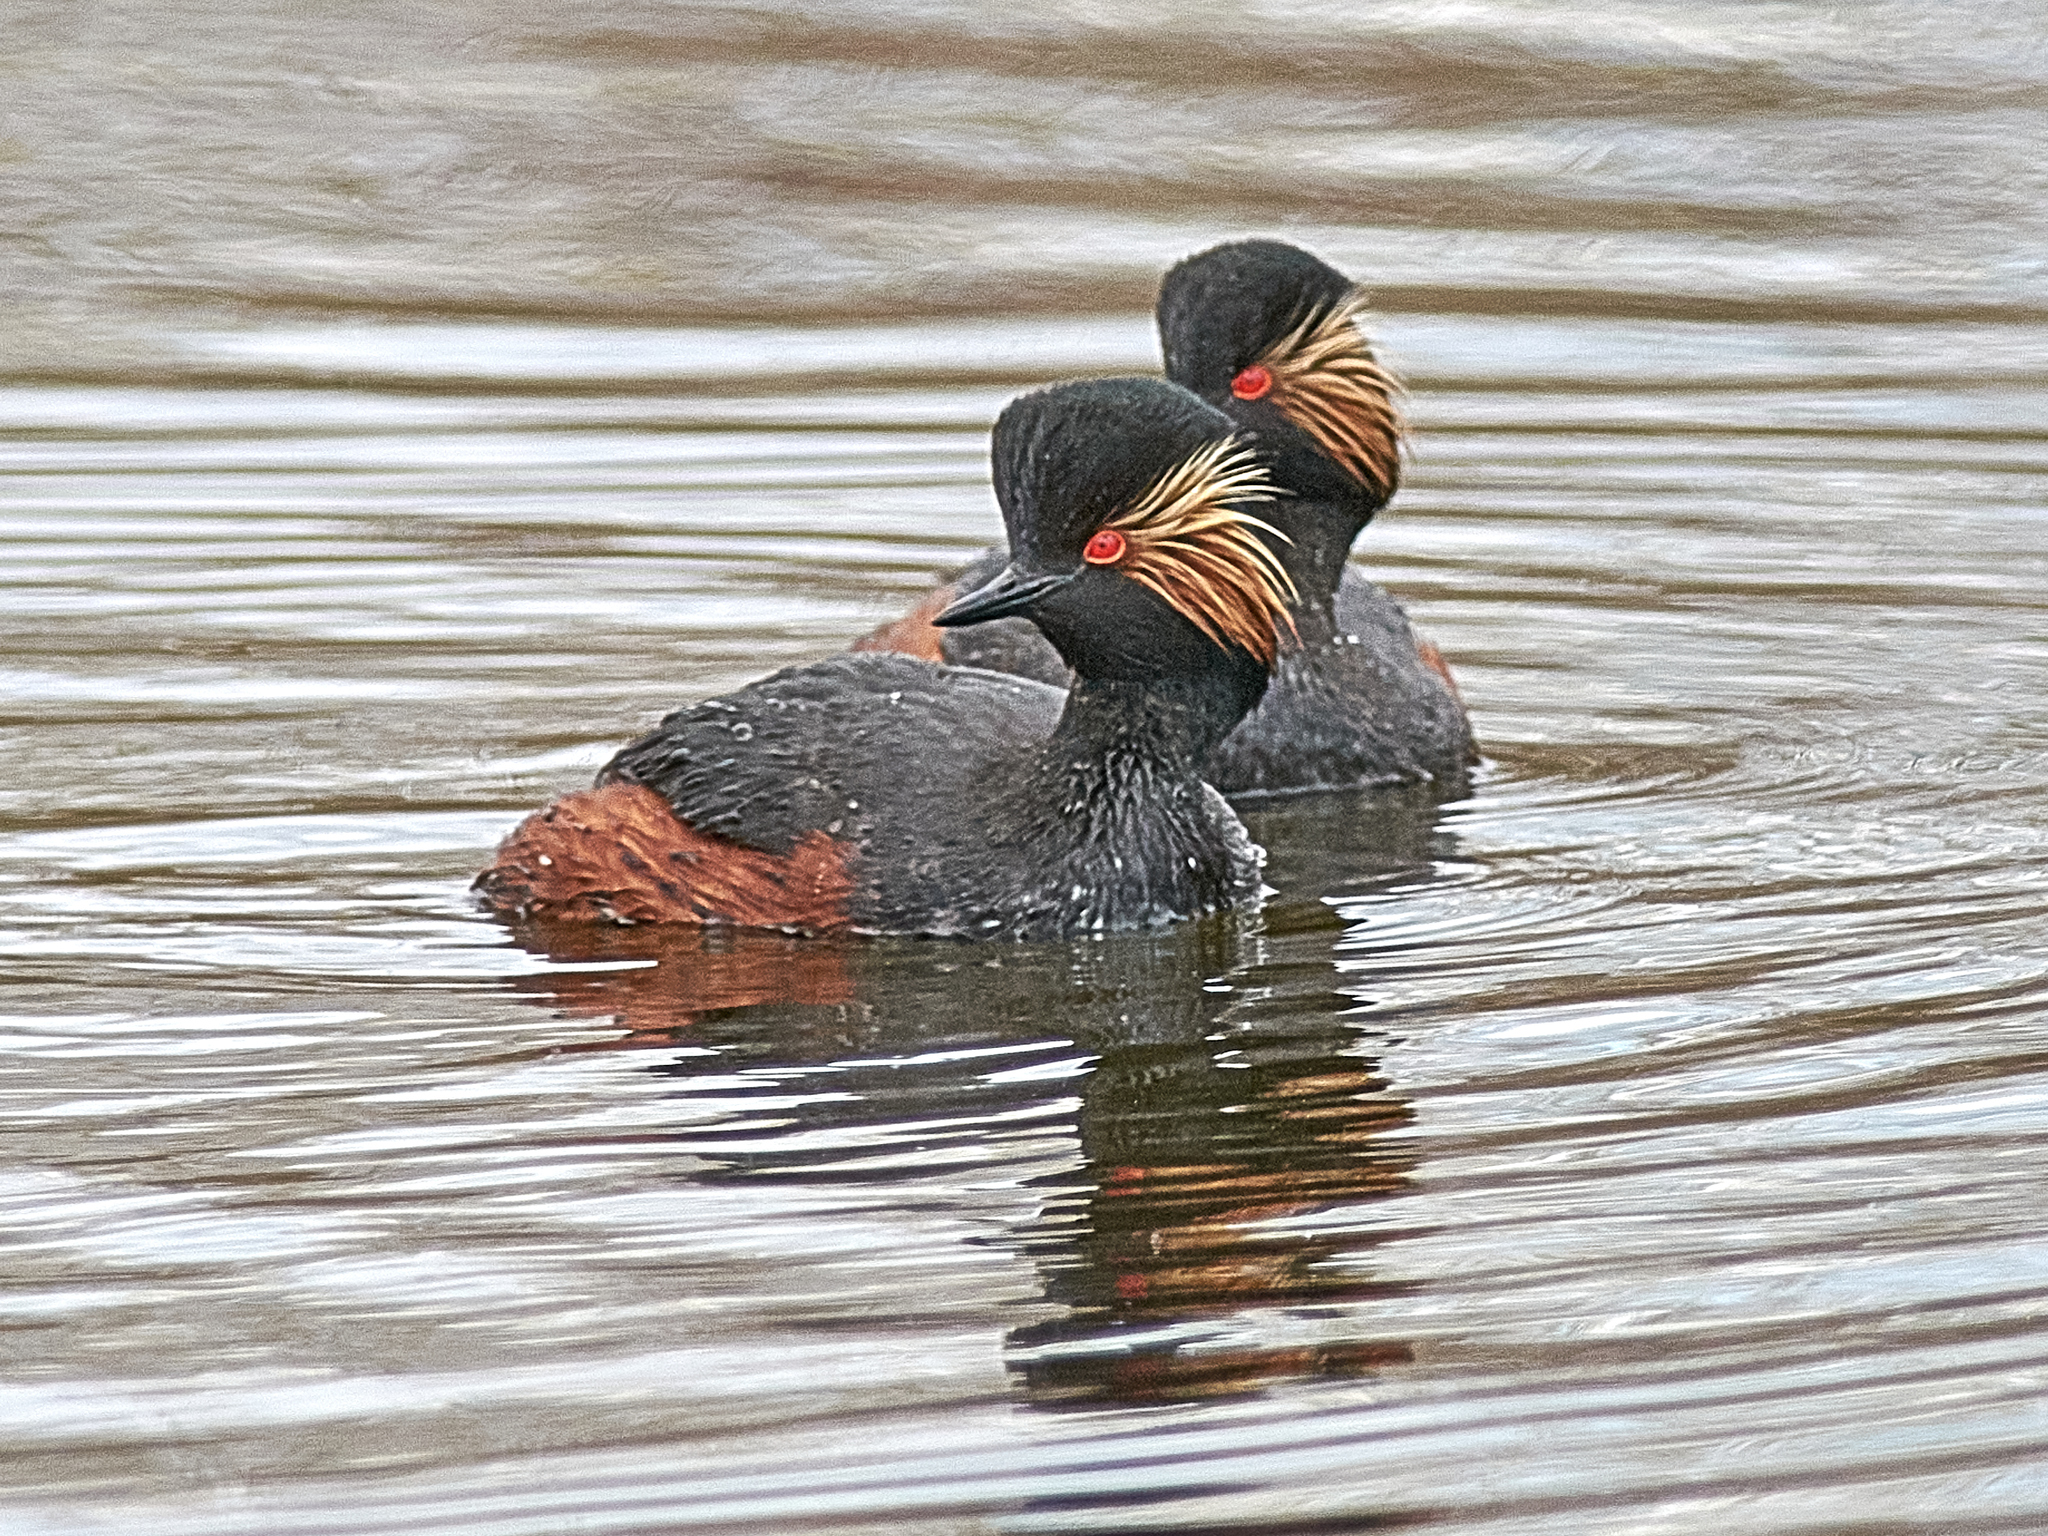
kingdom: Animalia
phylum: Chordata
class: Aves
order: Podicipediformes
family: Podicipedidae
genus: Podiceps
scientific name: Podiceps nigricollis
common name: Black-necked grebe
